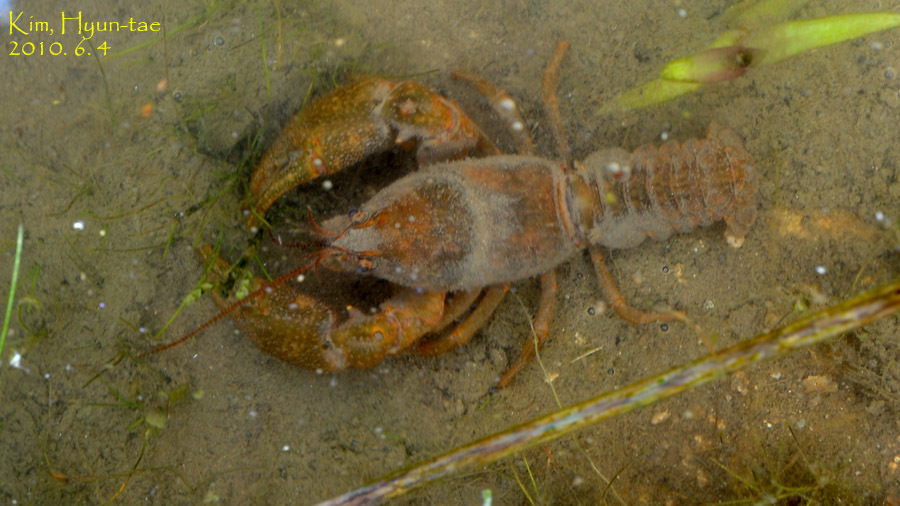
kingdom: Animalia
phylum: Arthropoda
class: Malacostraca
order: Decapoda
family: Cambaroididae
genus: Cambaroides
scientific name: Cambaroides similis
